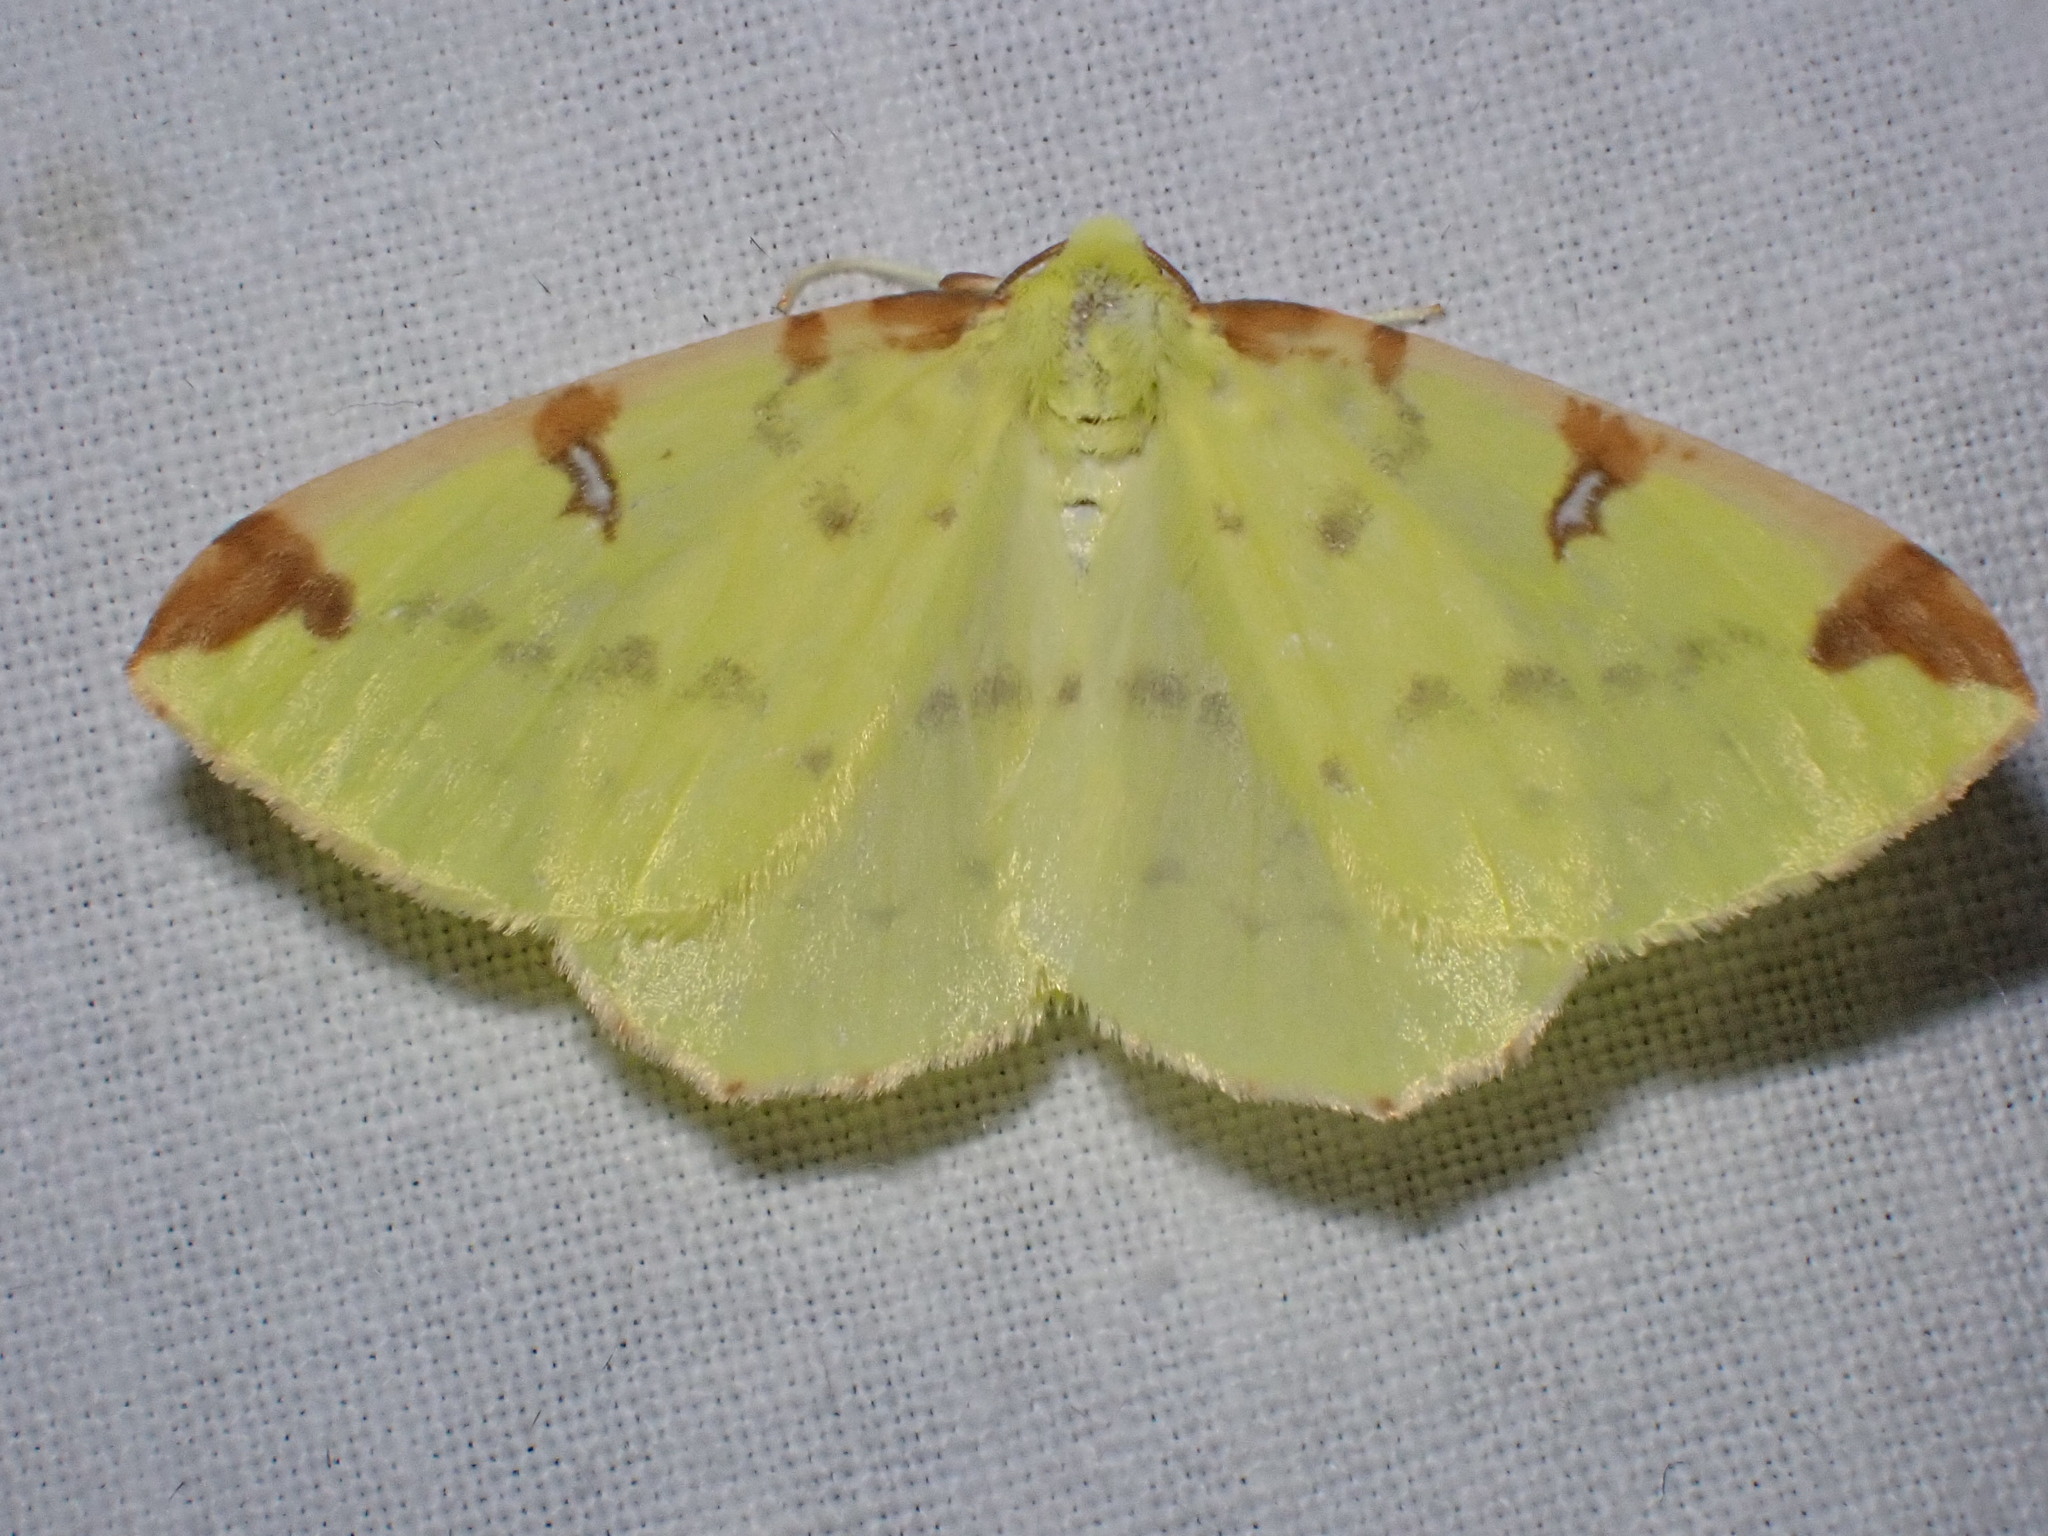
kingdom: Animalia
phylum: Arthropoda
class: Insecta
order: Lepidoptera
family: Geometridae
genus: Opisthograptis
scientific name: Opisthograptis luteolata
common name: Brimstone moth
